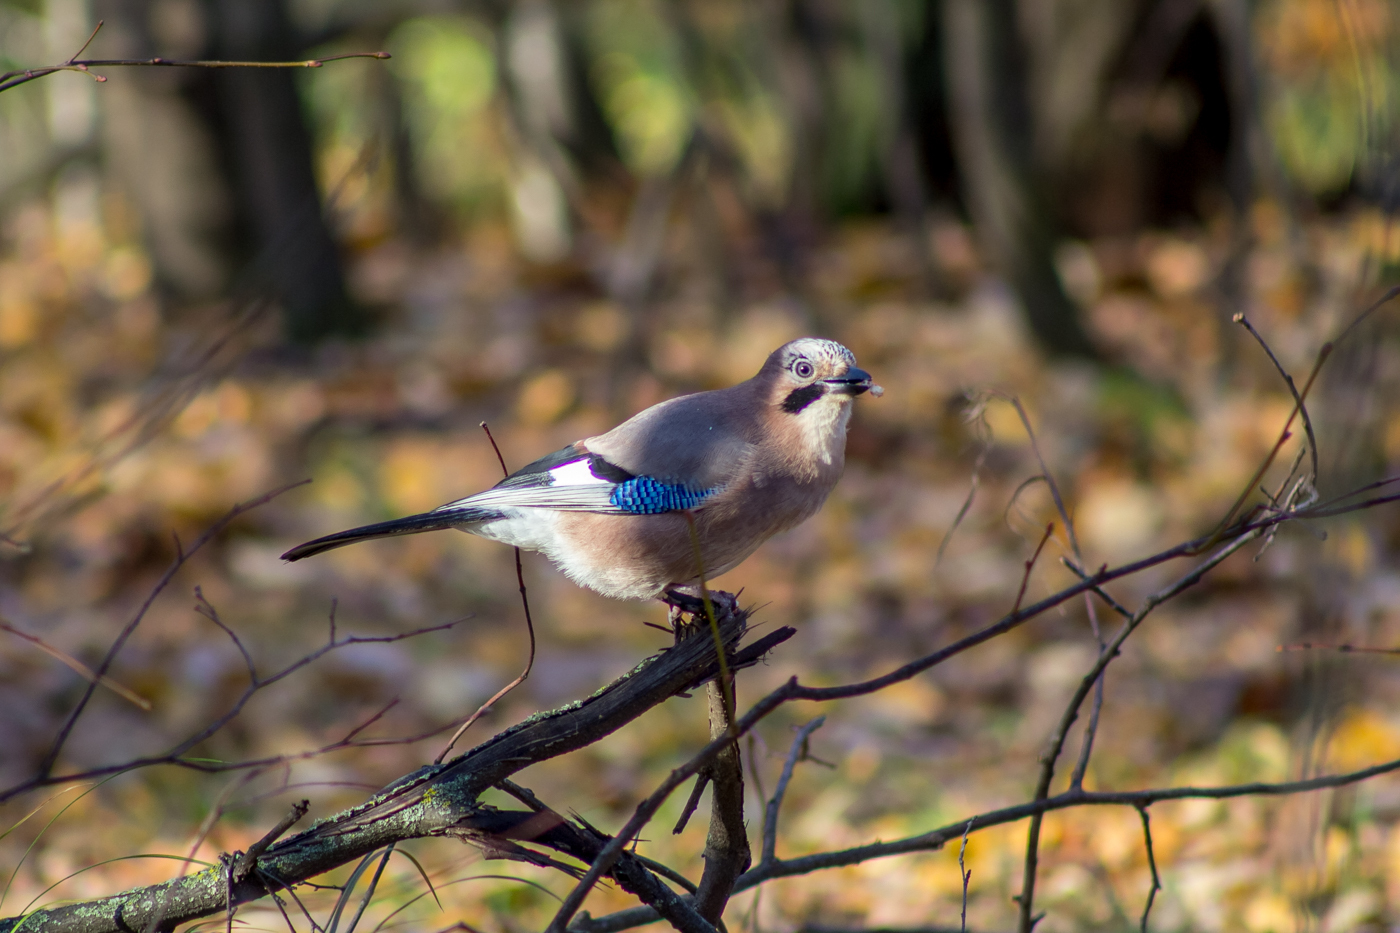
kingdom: Animalia
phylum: Chordata
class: Aves
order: Passeriformes
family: Corvidae
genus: Garrulus
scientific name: Garrulus glandarius
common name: Eurasian jay
